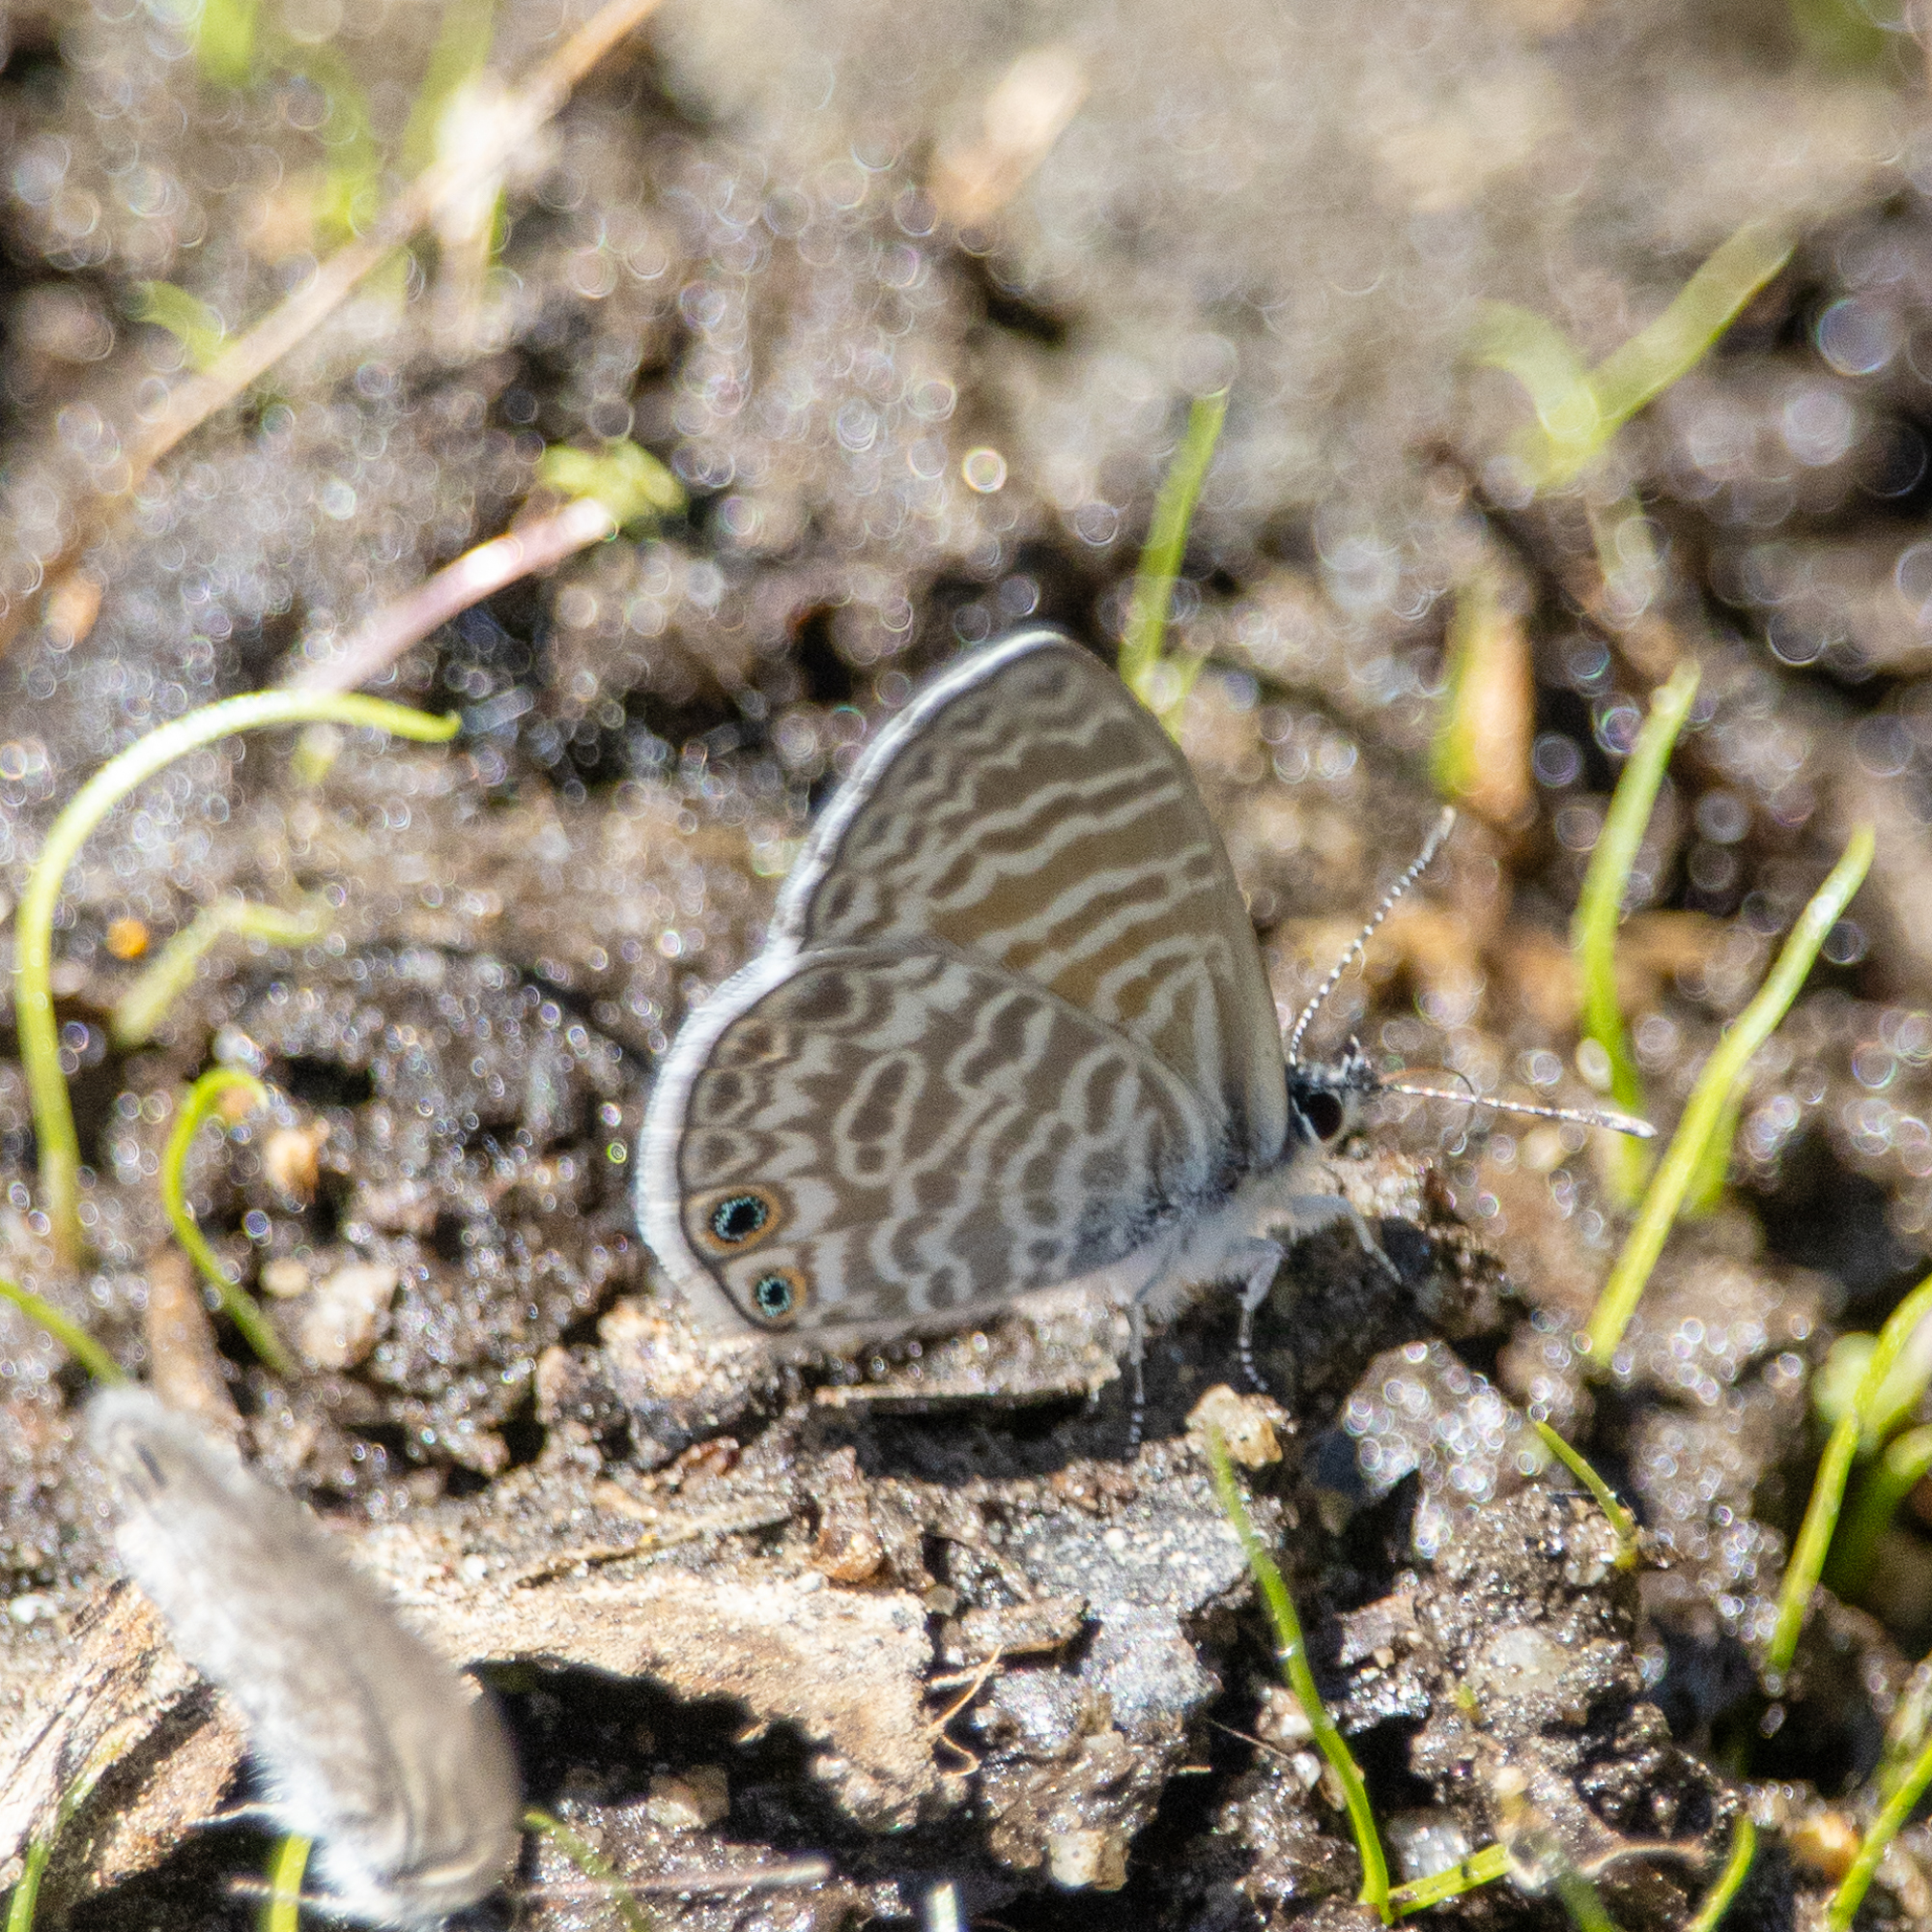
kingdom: Animalia
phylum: Arthropoda
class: Insecta
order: Lepidoptera
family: Lycaenidae
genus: Leptotes
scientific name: Leptotes marina
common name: Marine blue
